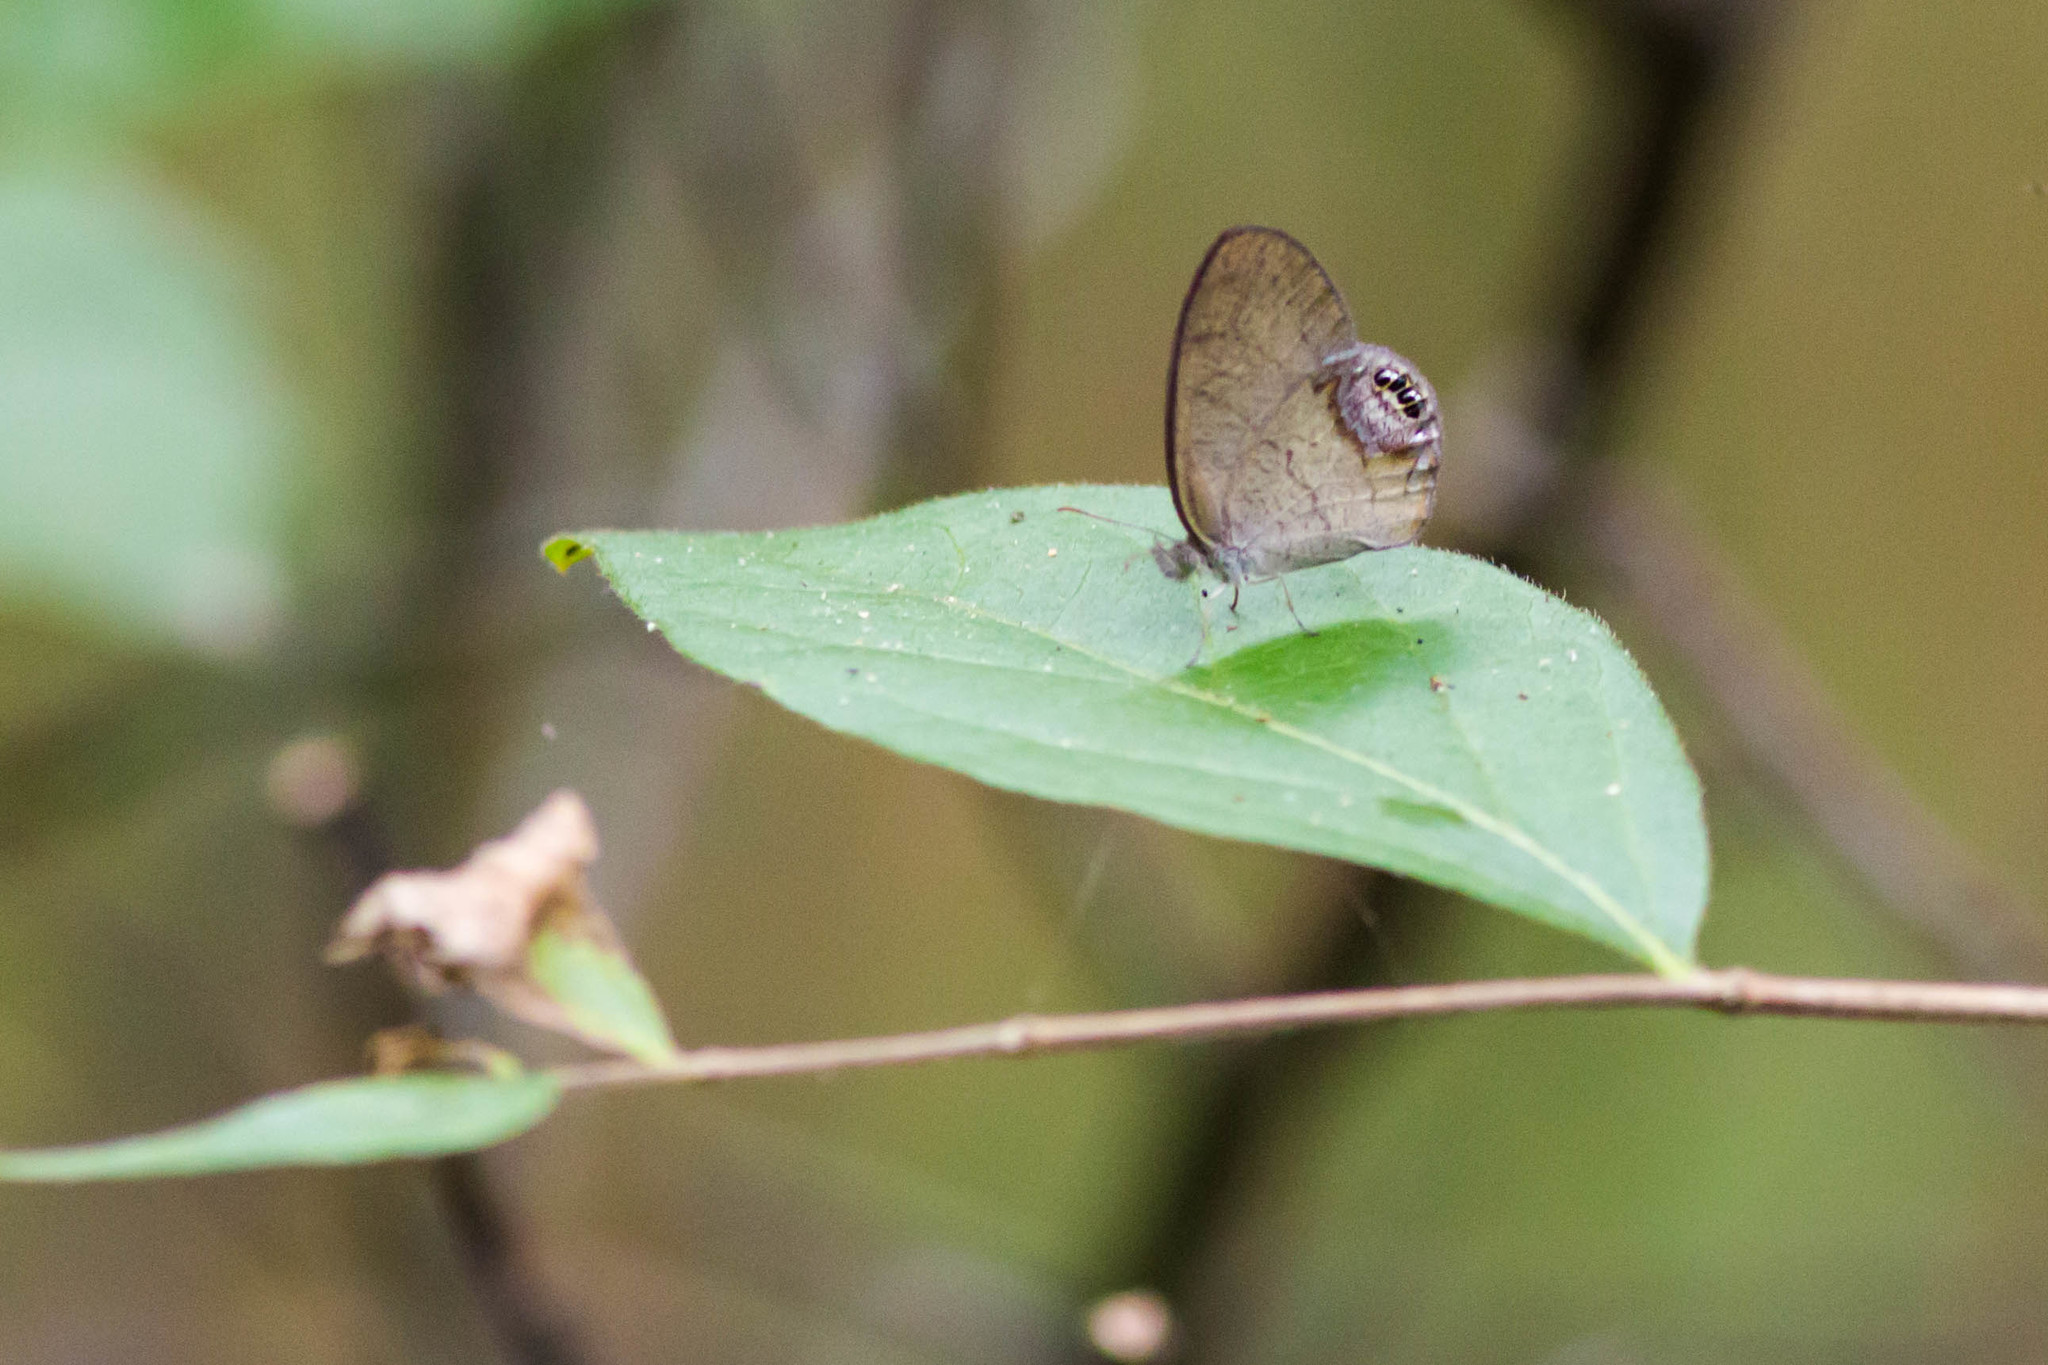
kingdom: Animalia
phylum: Arthropoda
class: Insecta
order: Lepidoptera
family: Nymphalidae
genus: Euptychia
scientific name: Euptychia cornelius
